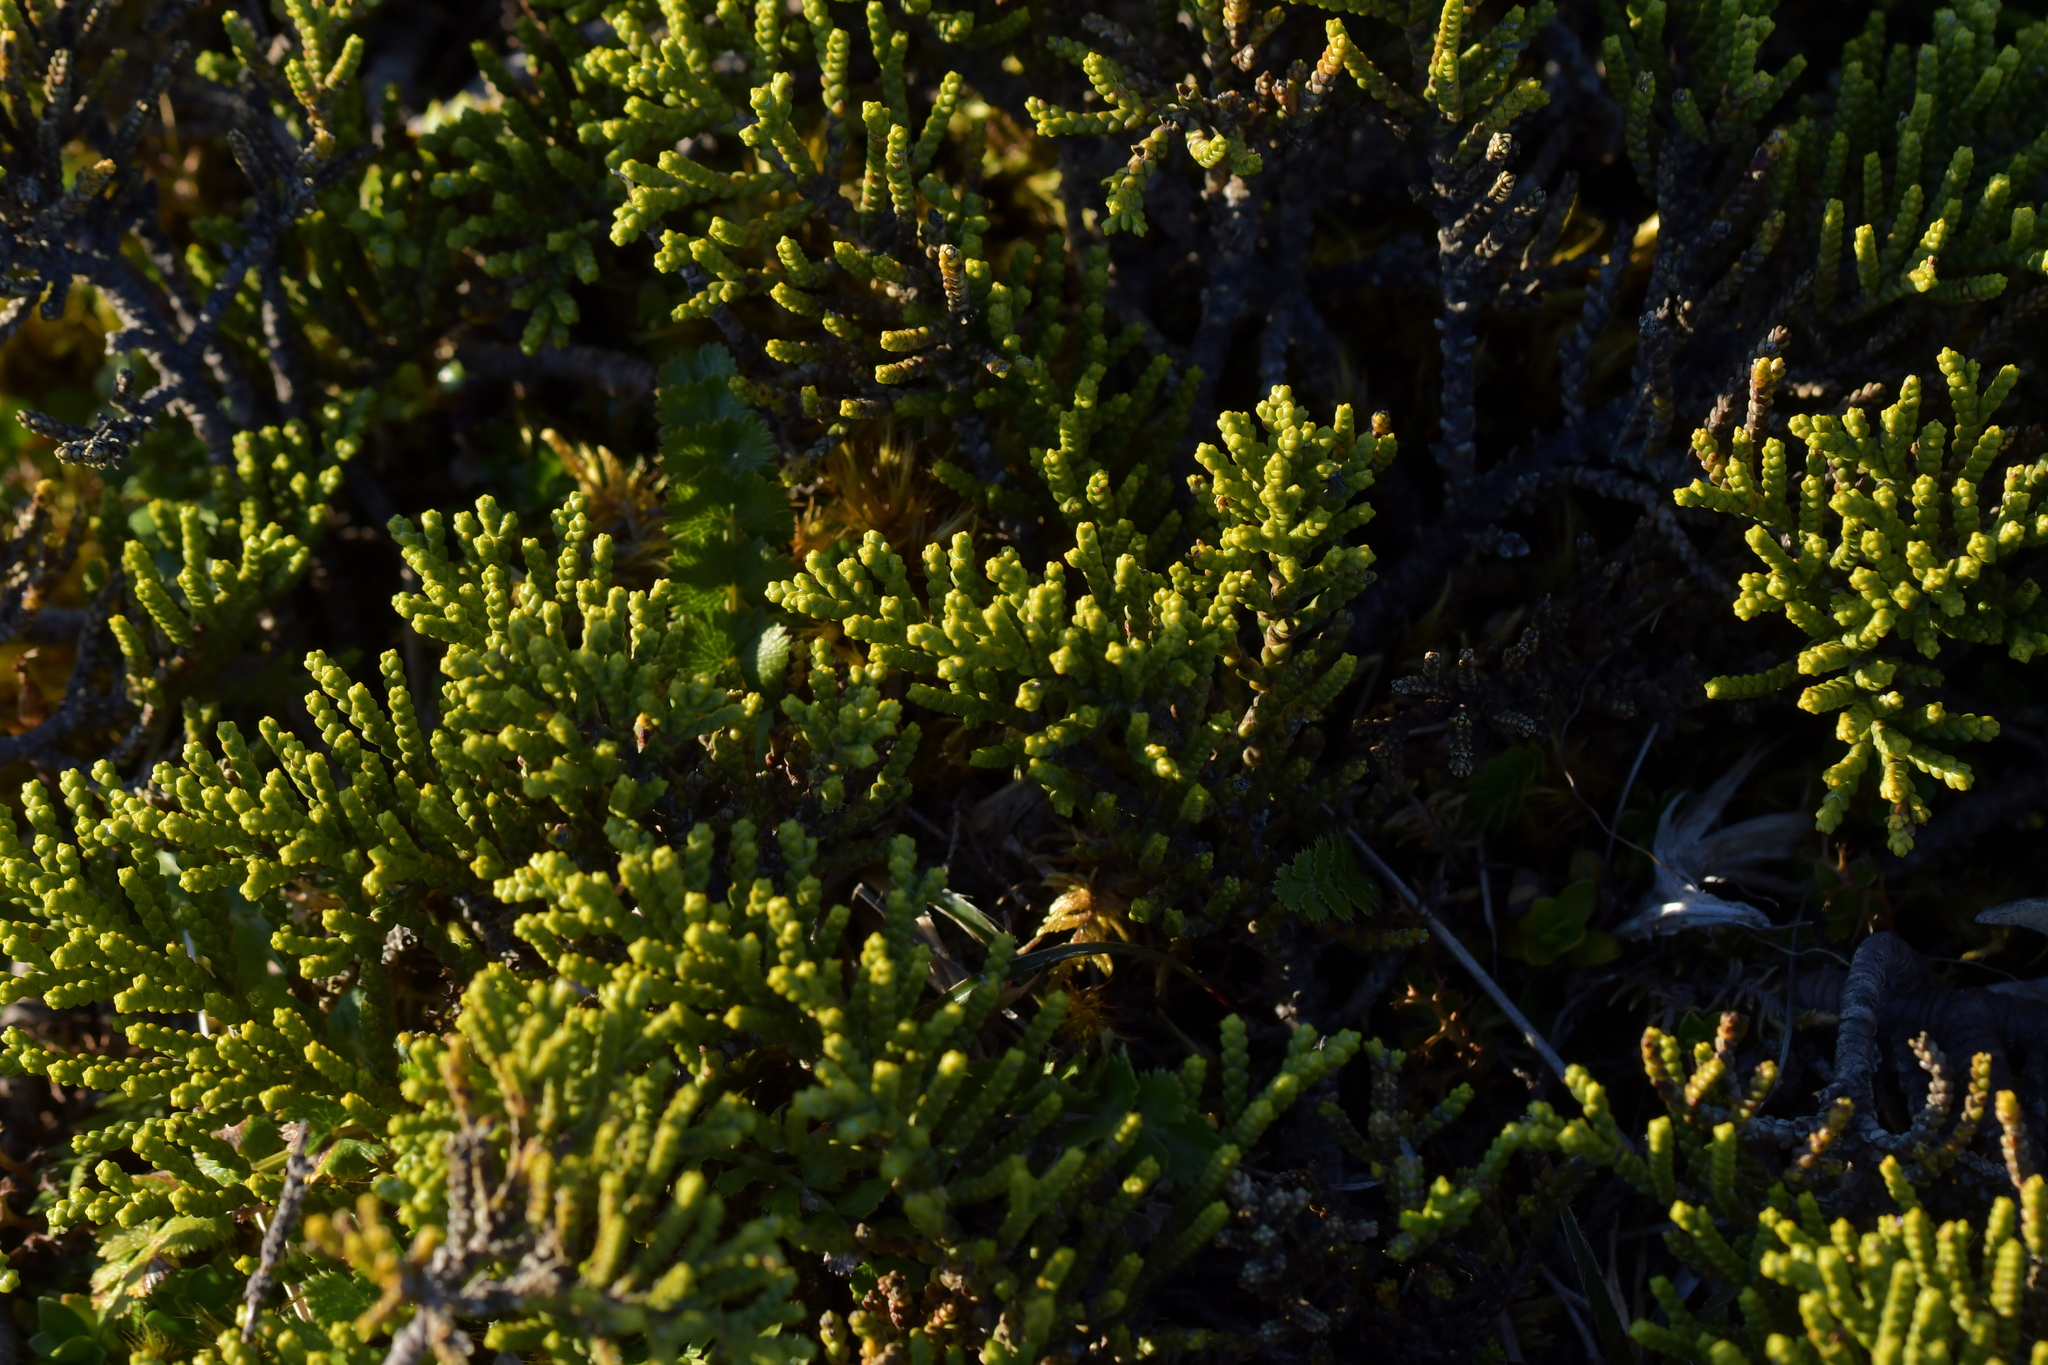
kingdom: Plantae
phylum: Tracheophyta
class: Magnoliopsida
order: Lamiales
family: Plantaginaceae
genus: Veronica
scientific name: Veronica tetragona
